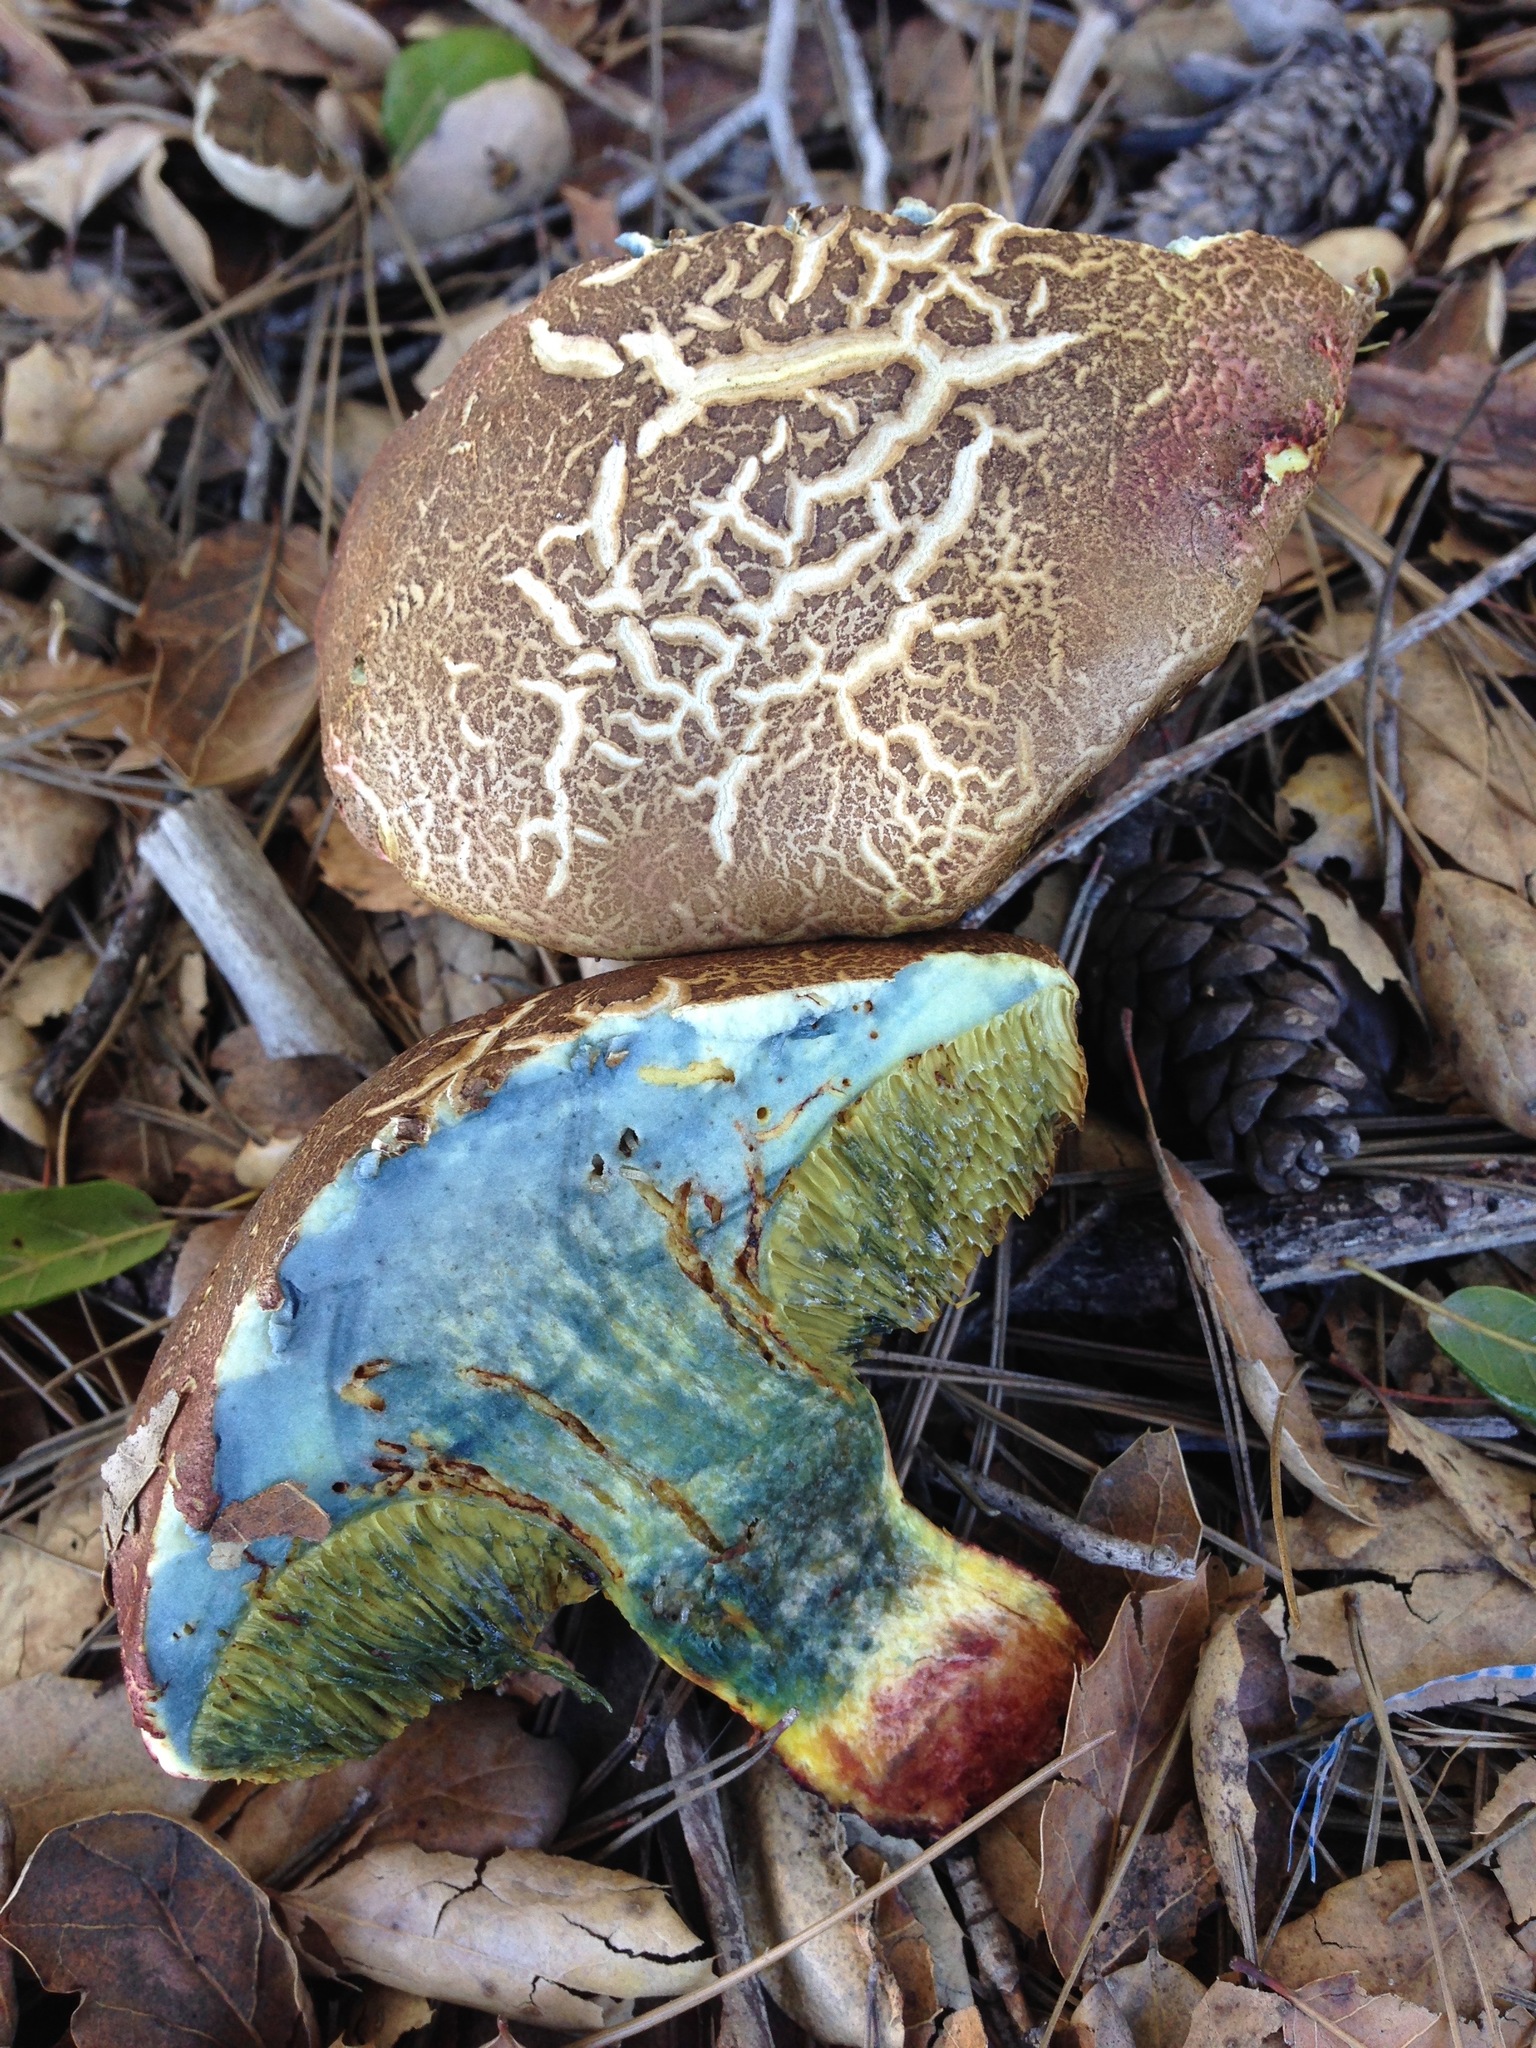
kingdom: Fungi
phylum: Basidiomycota
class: Agaricomycetes
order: Boletales
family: Boletaceae
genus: Xerocomellus
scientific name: Xerocomellus dryophilus
